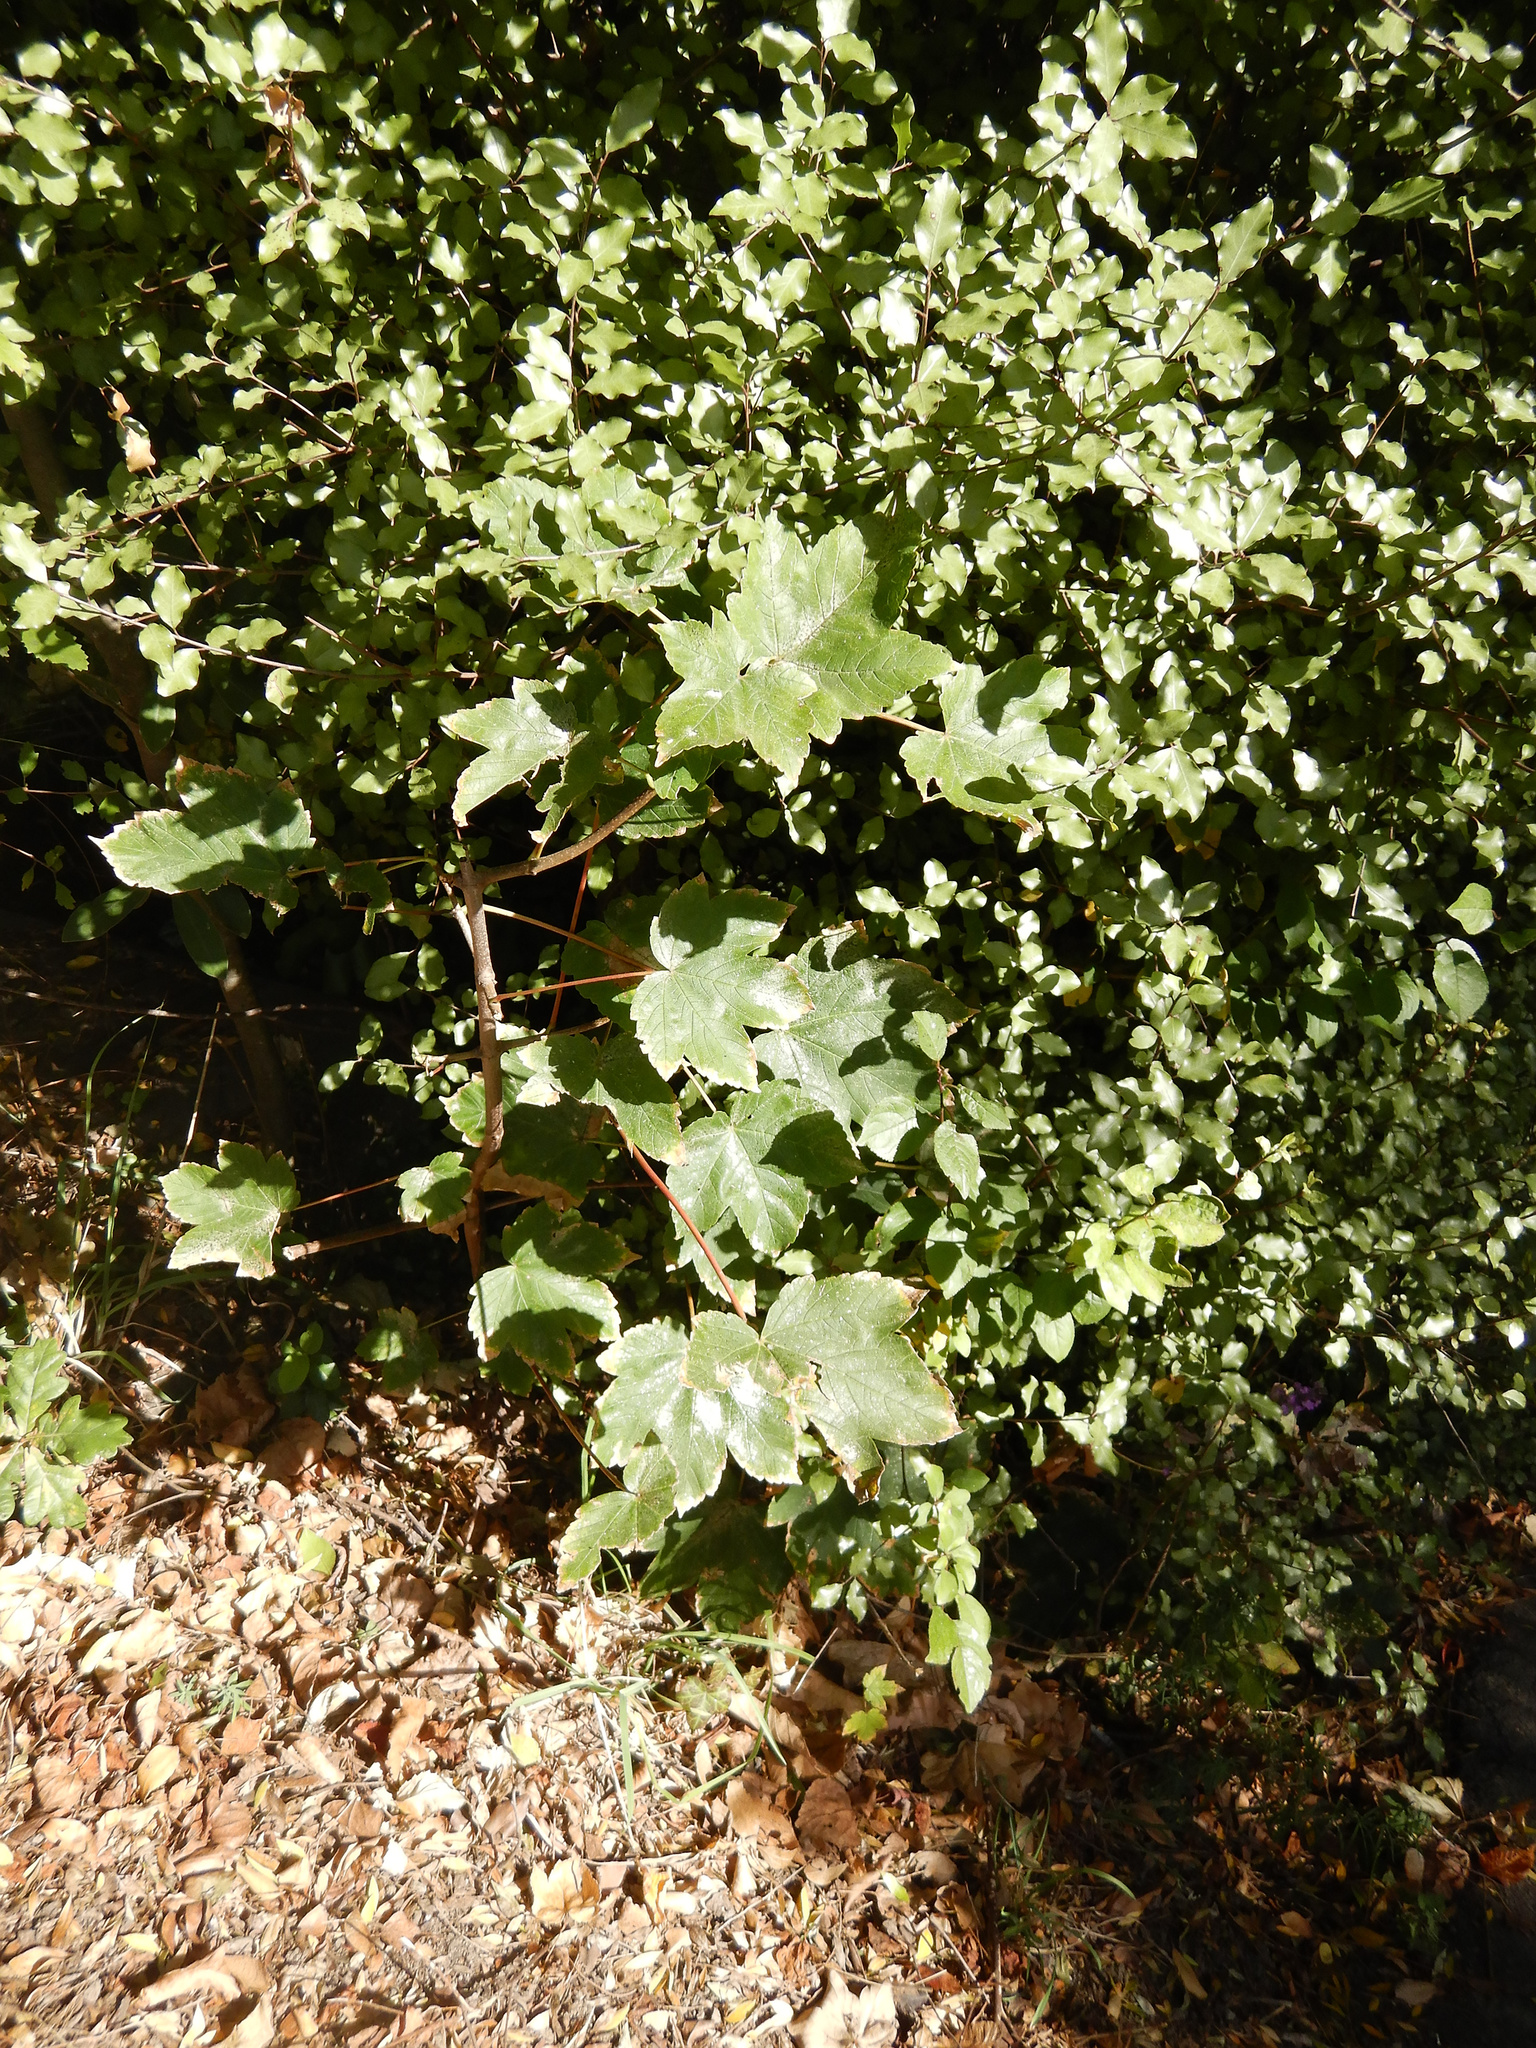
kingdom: Plantae
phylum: Tracheophyta
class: Magnoliopsida
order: Sapindales
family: Sapindaceae
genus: Acer
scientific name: Acer pseudoplatanus
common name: Sycamore
